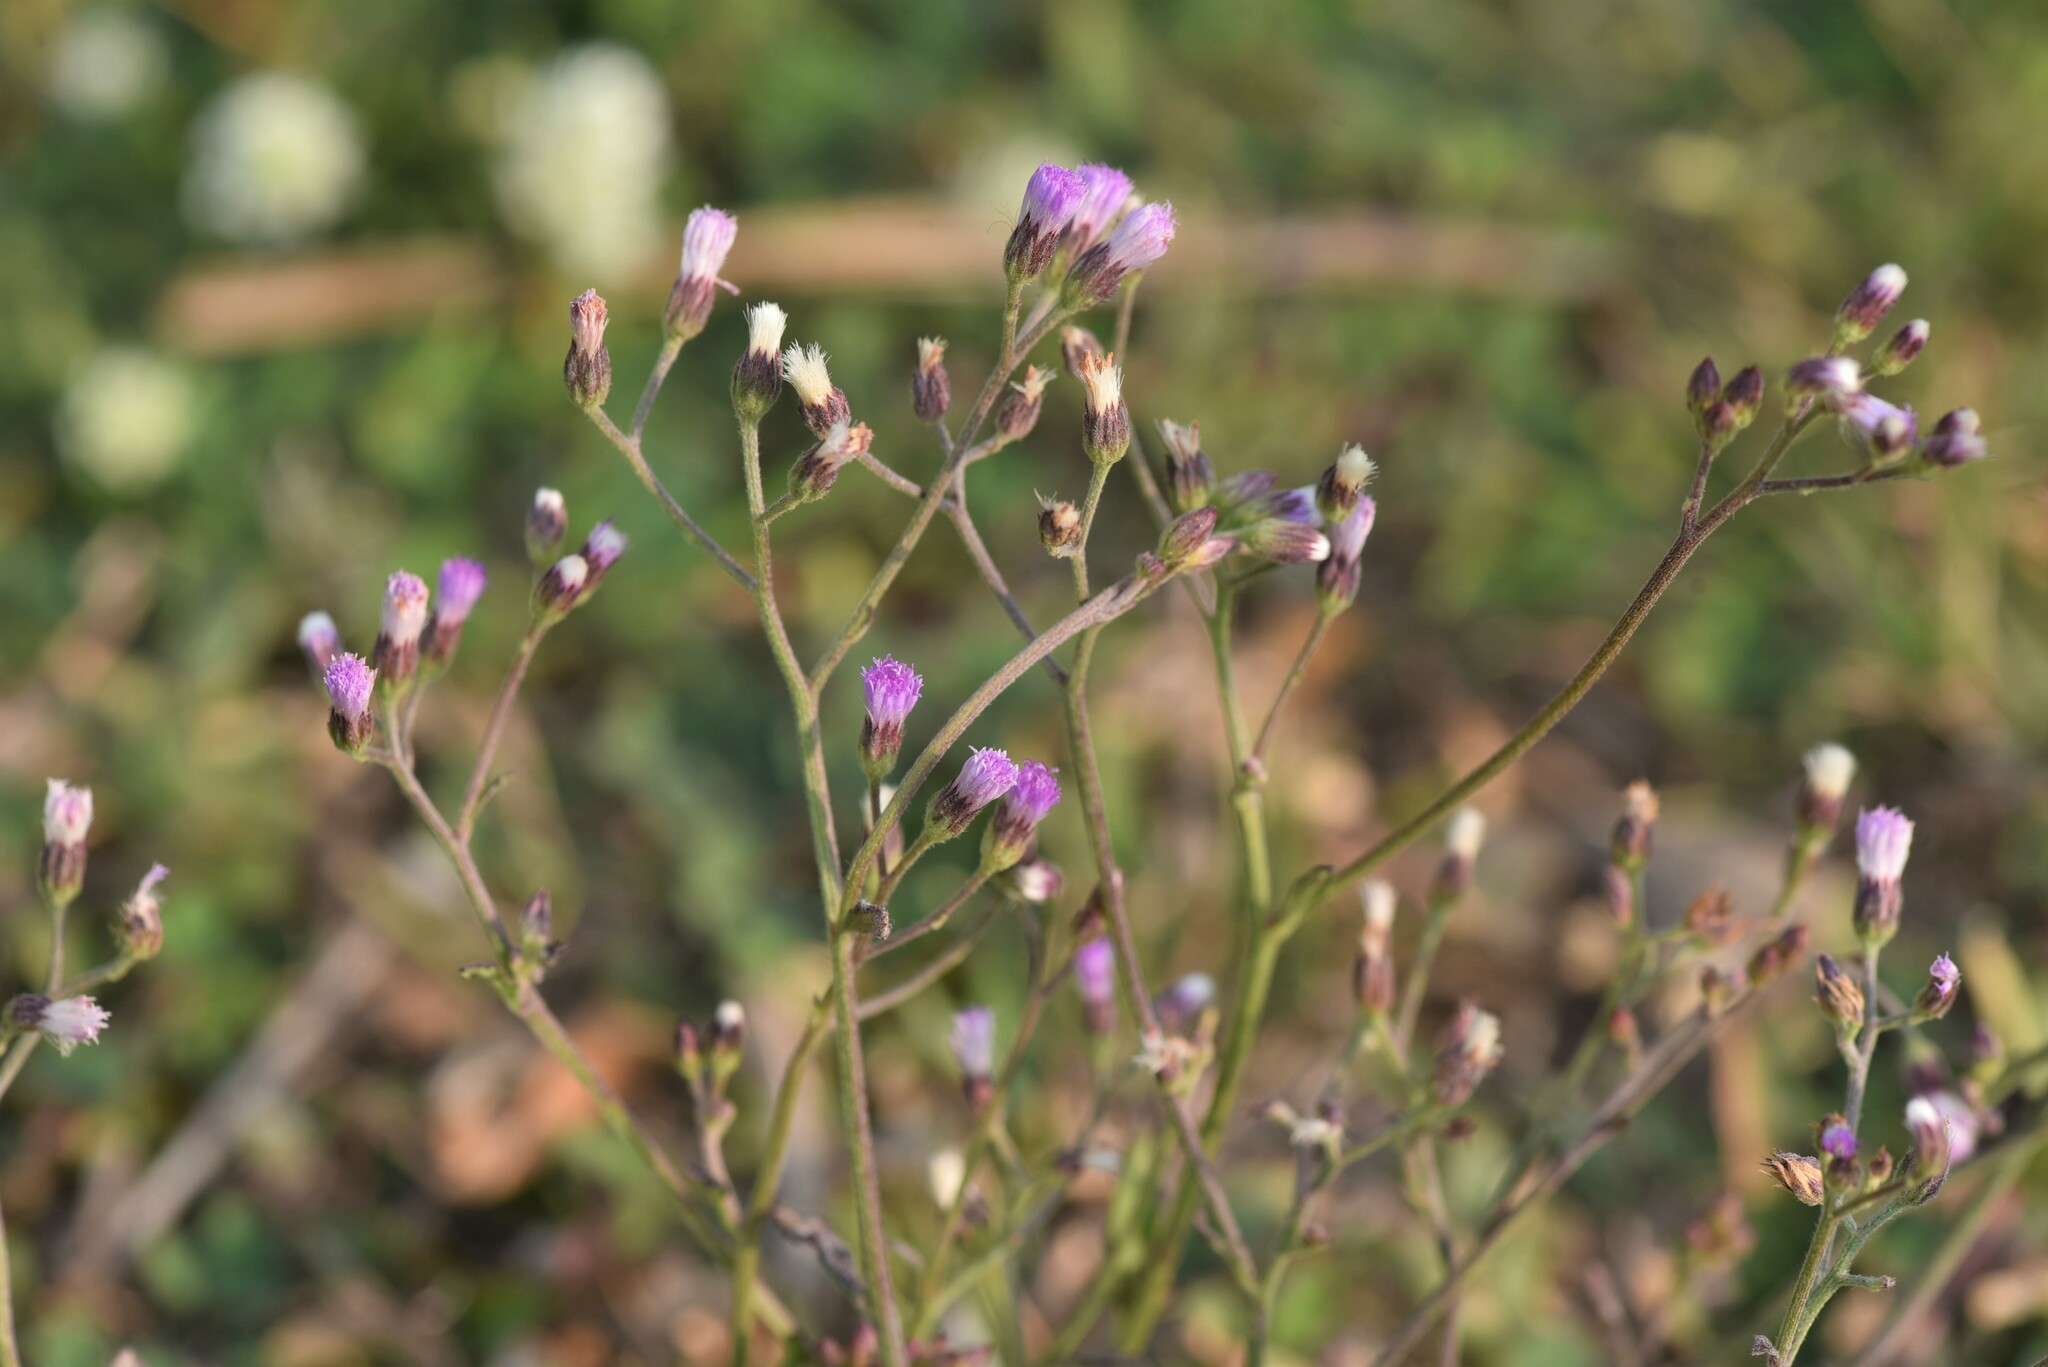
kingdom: Plantae
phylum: Tracheophyta
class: Magnoliopsida
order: Asterales
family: Asteraceae
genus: Cyanthillium
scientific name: Cyanthillium cinereum
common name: Little ironweed
